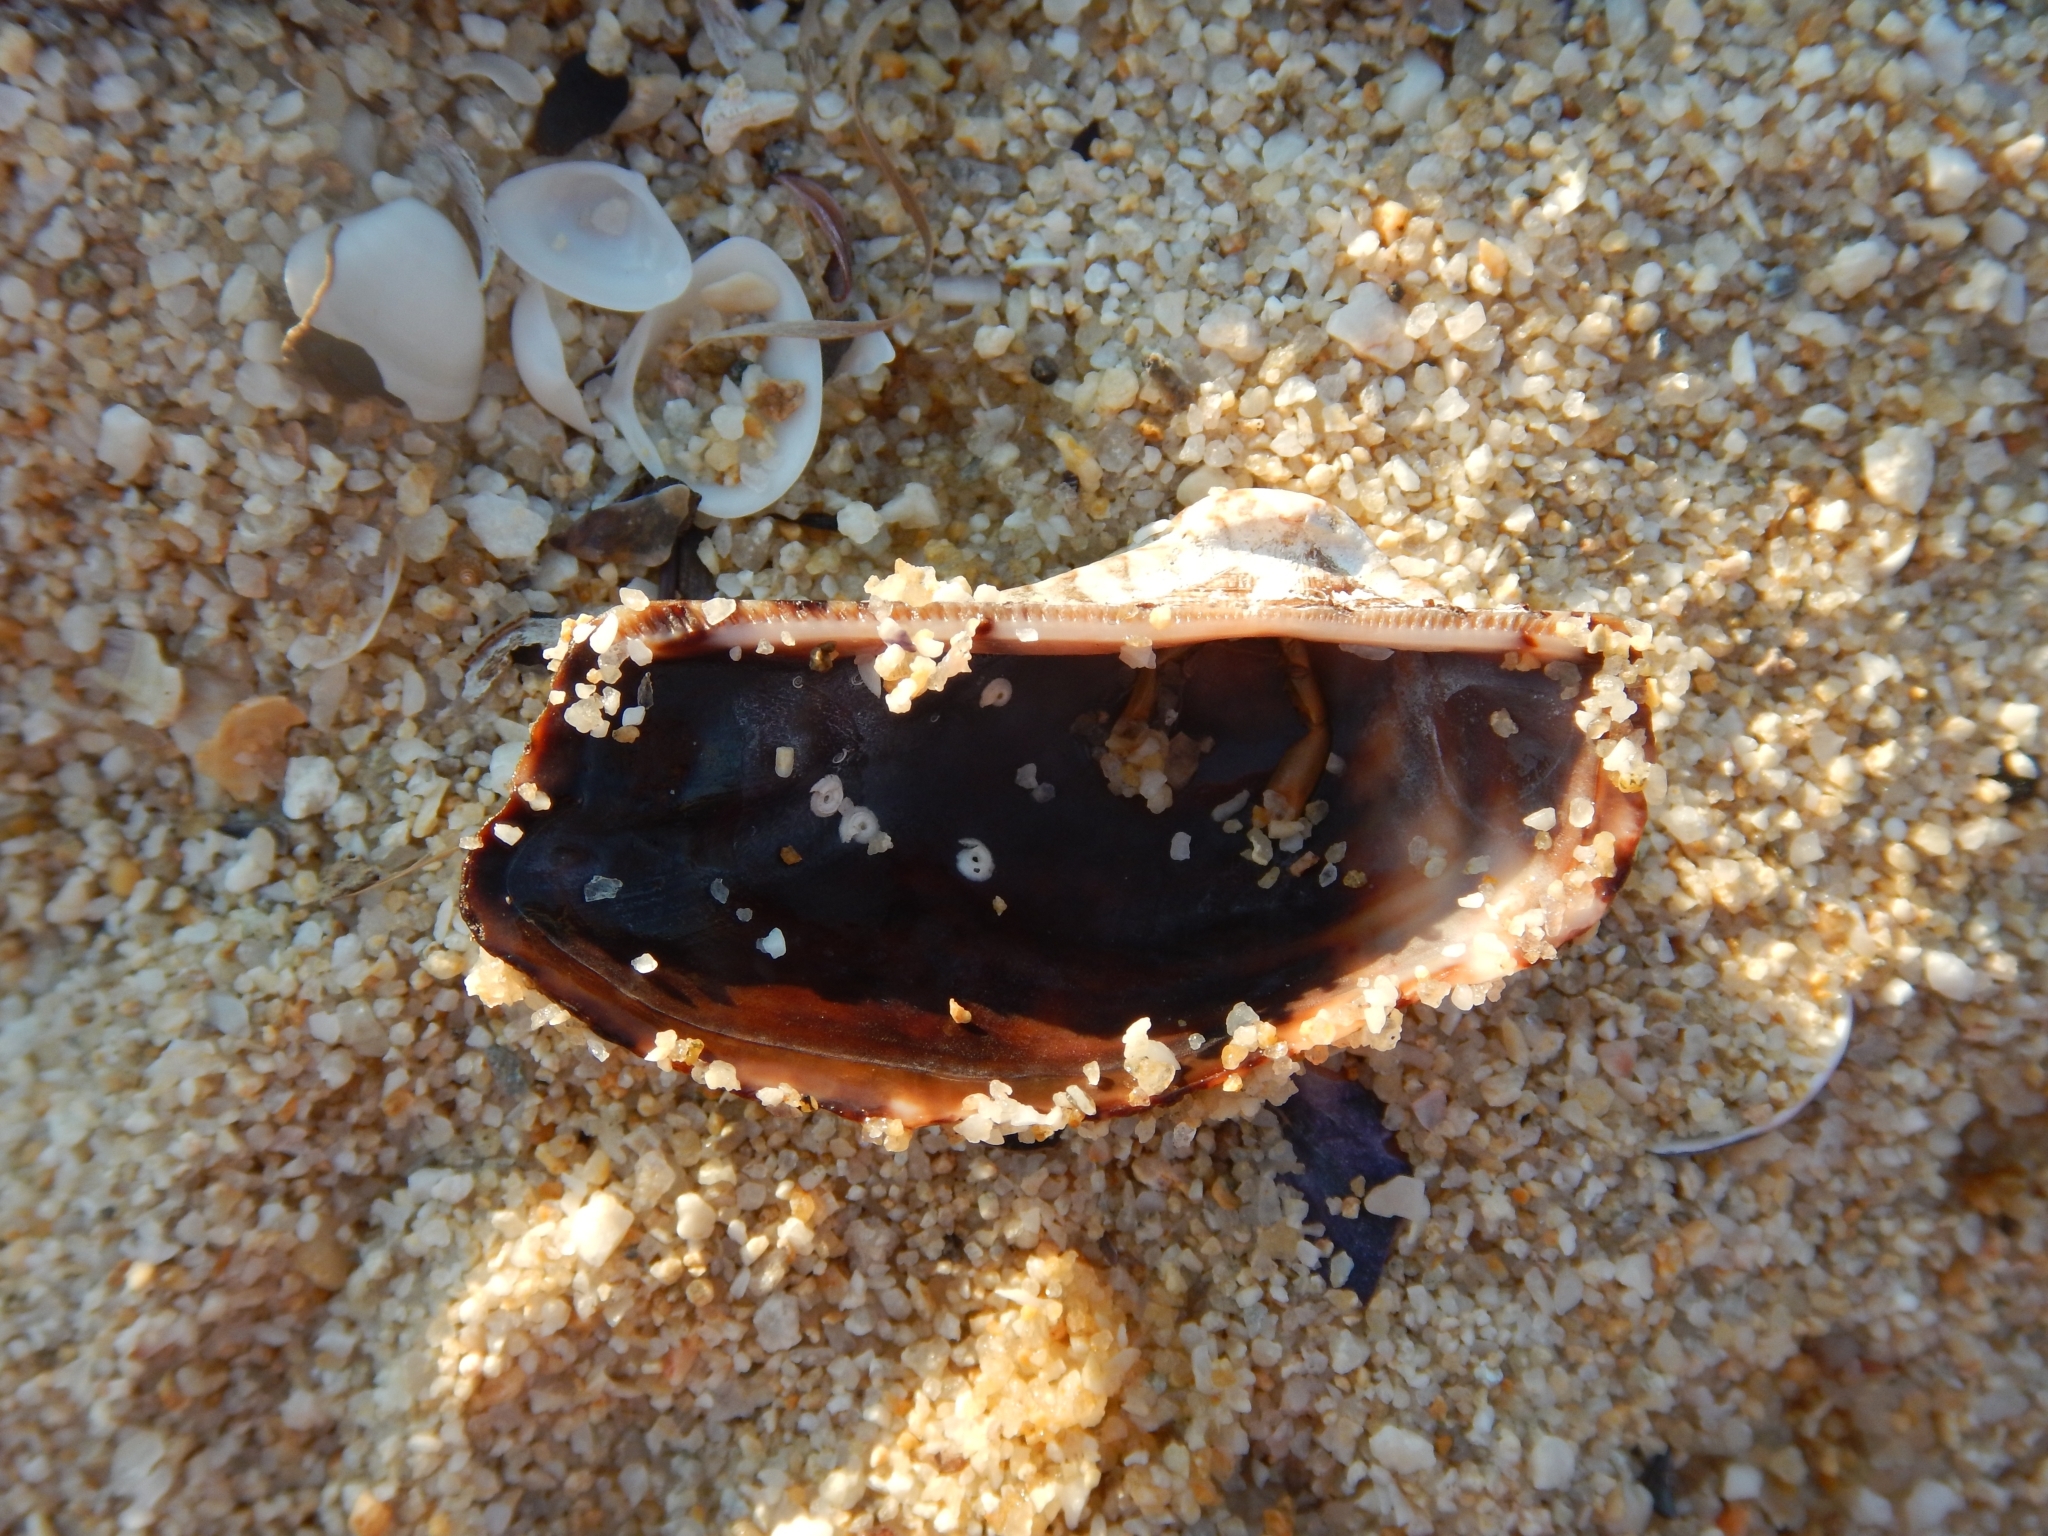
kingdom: Animalia
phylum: Mollusca
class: Bivalvia
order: Arcida
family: Arcidae
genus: Arca
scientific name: Arca noae
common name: Noah's arch
